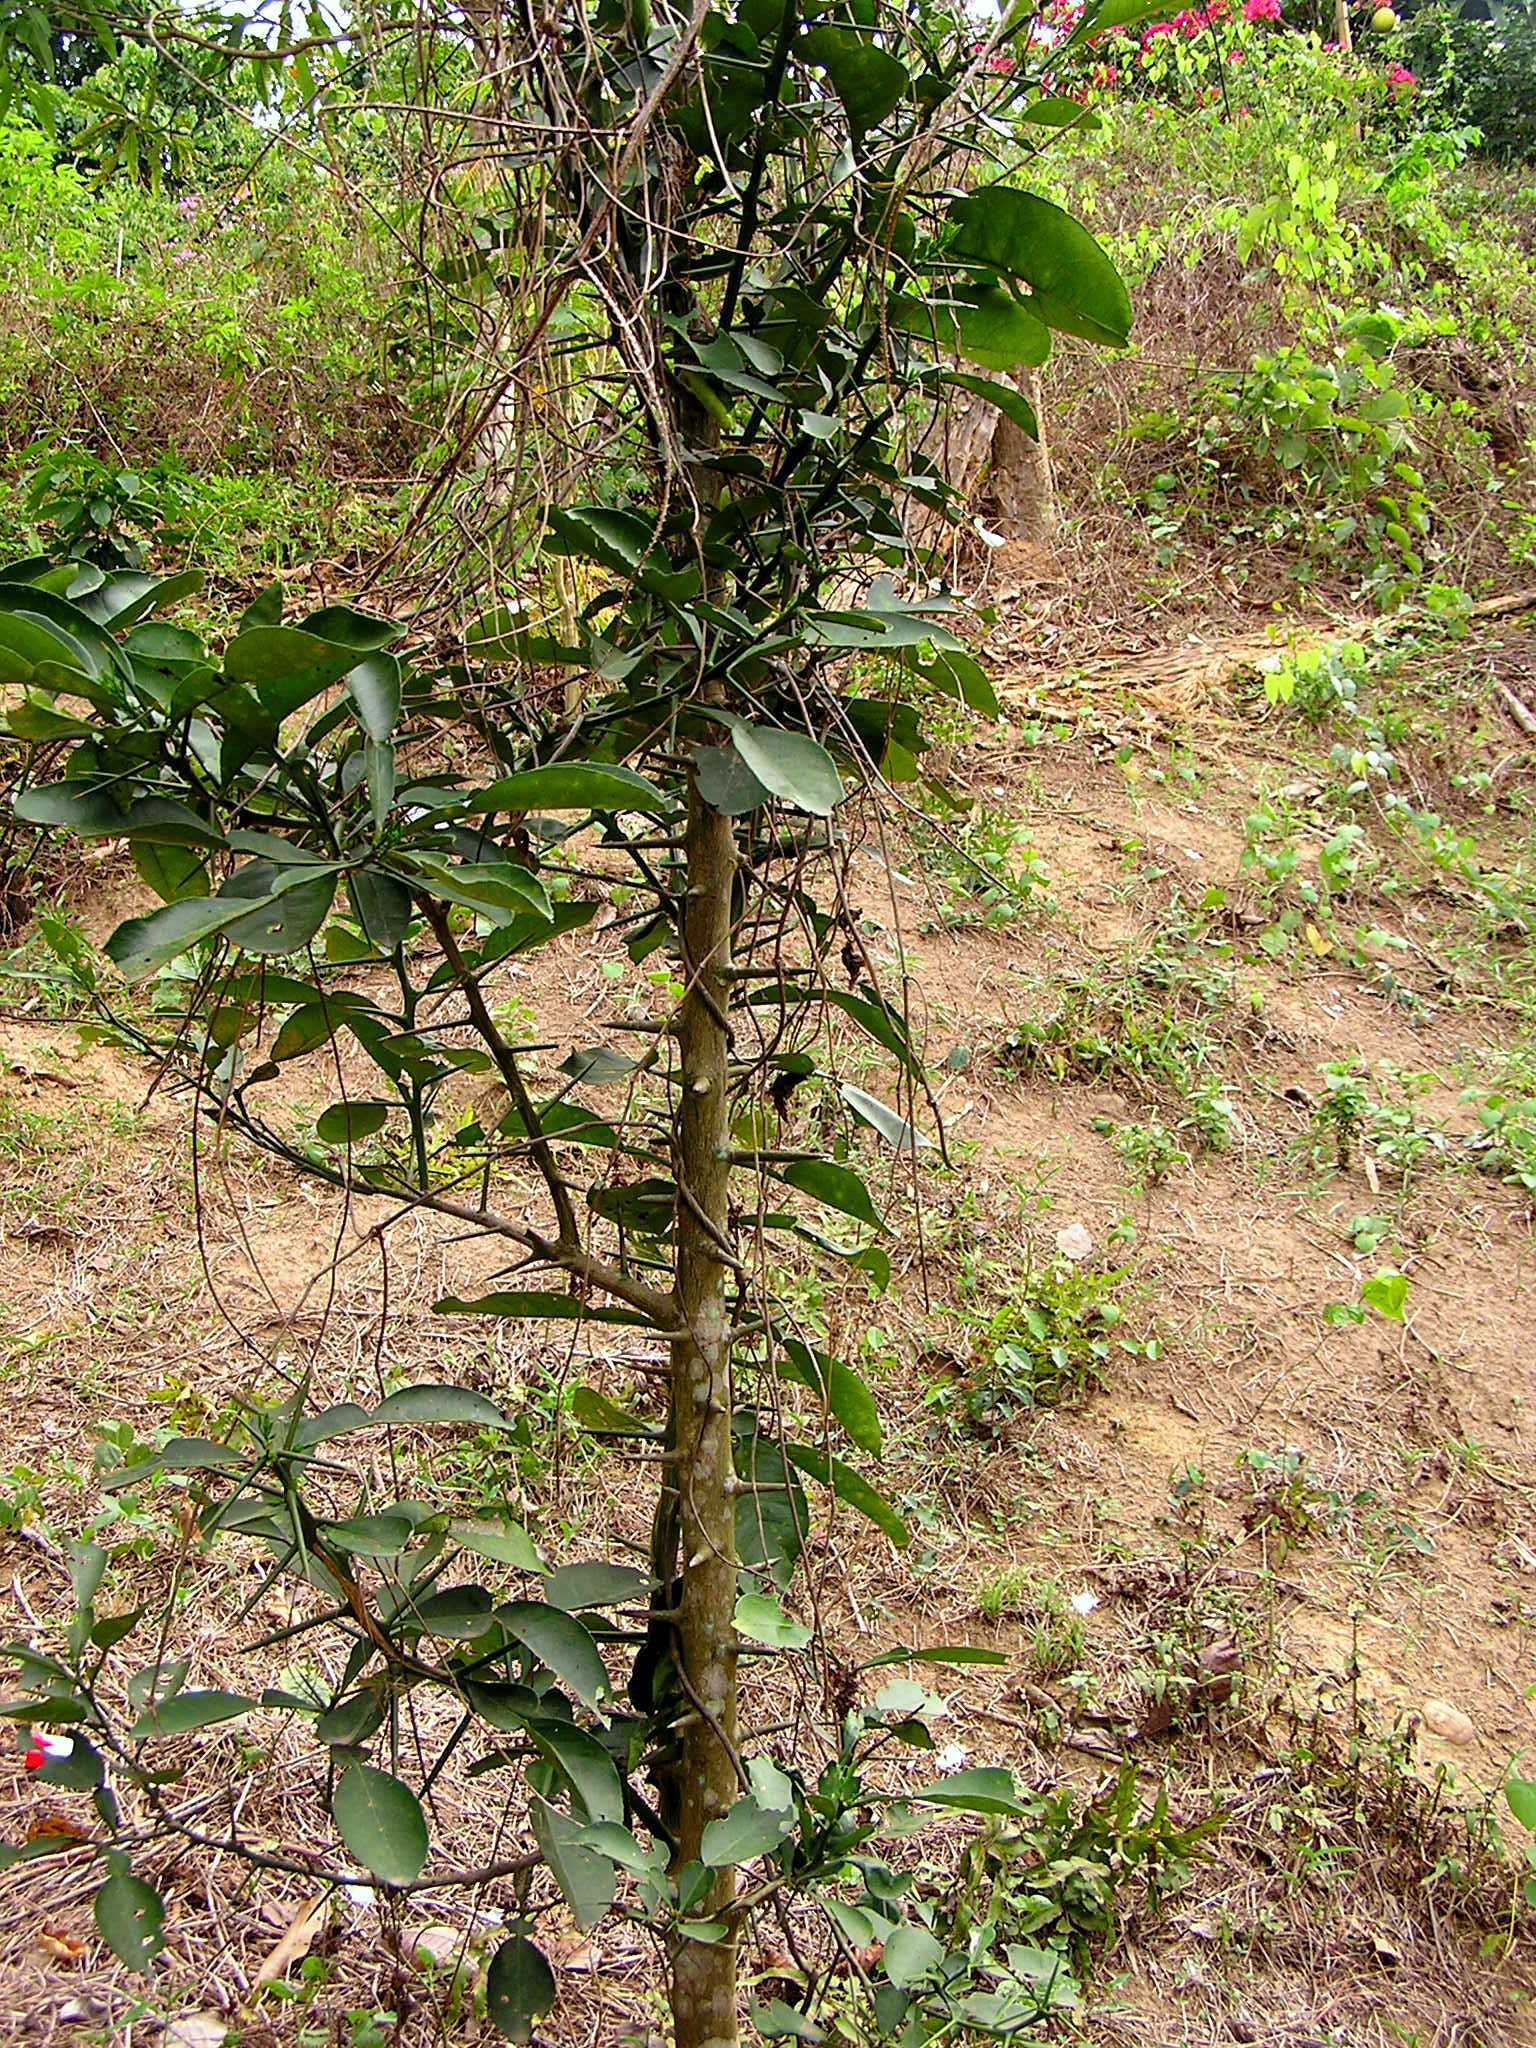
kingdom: Plantae
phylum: Tracheophyta
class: Magnoliopsida
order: Sapindales
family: Rutaceae
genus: Citrus
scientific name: Citrus hystrix
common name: Kaffir-lime
